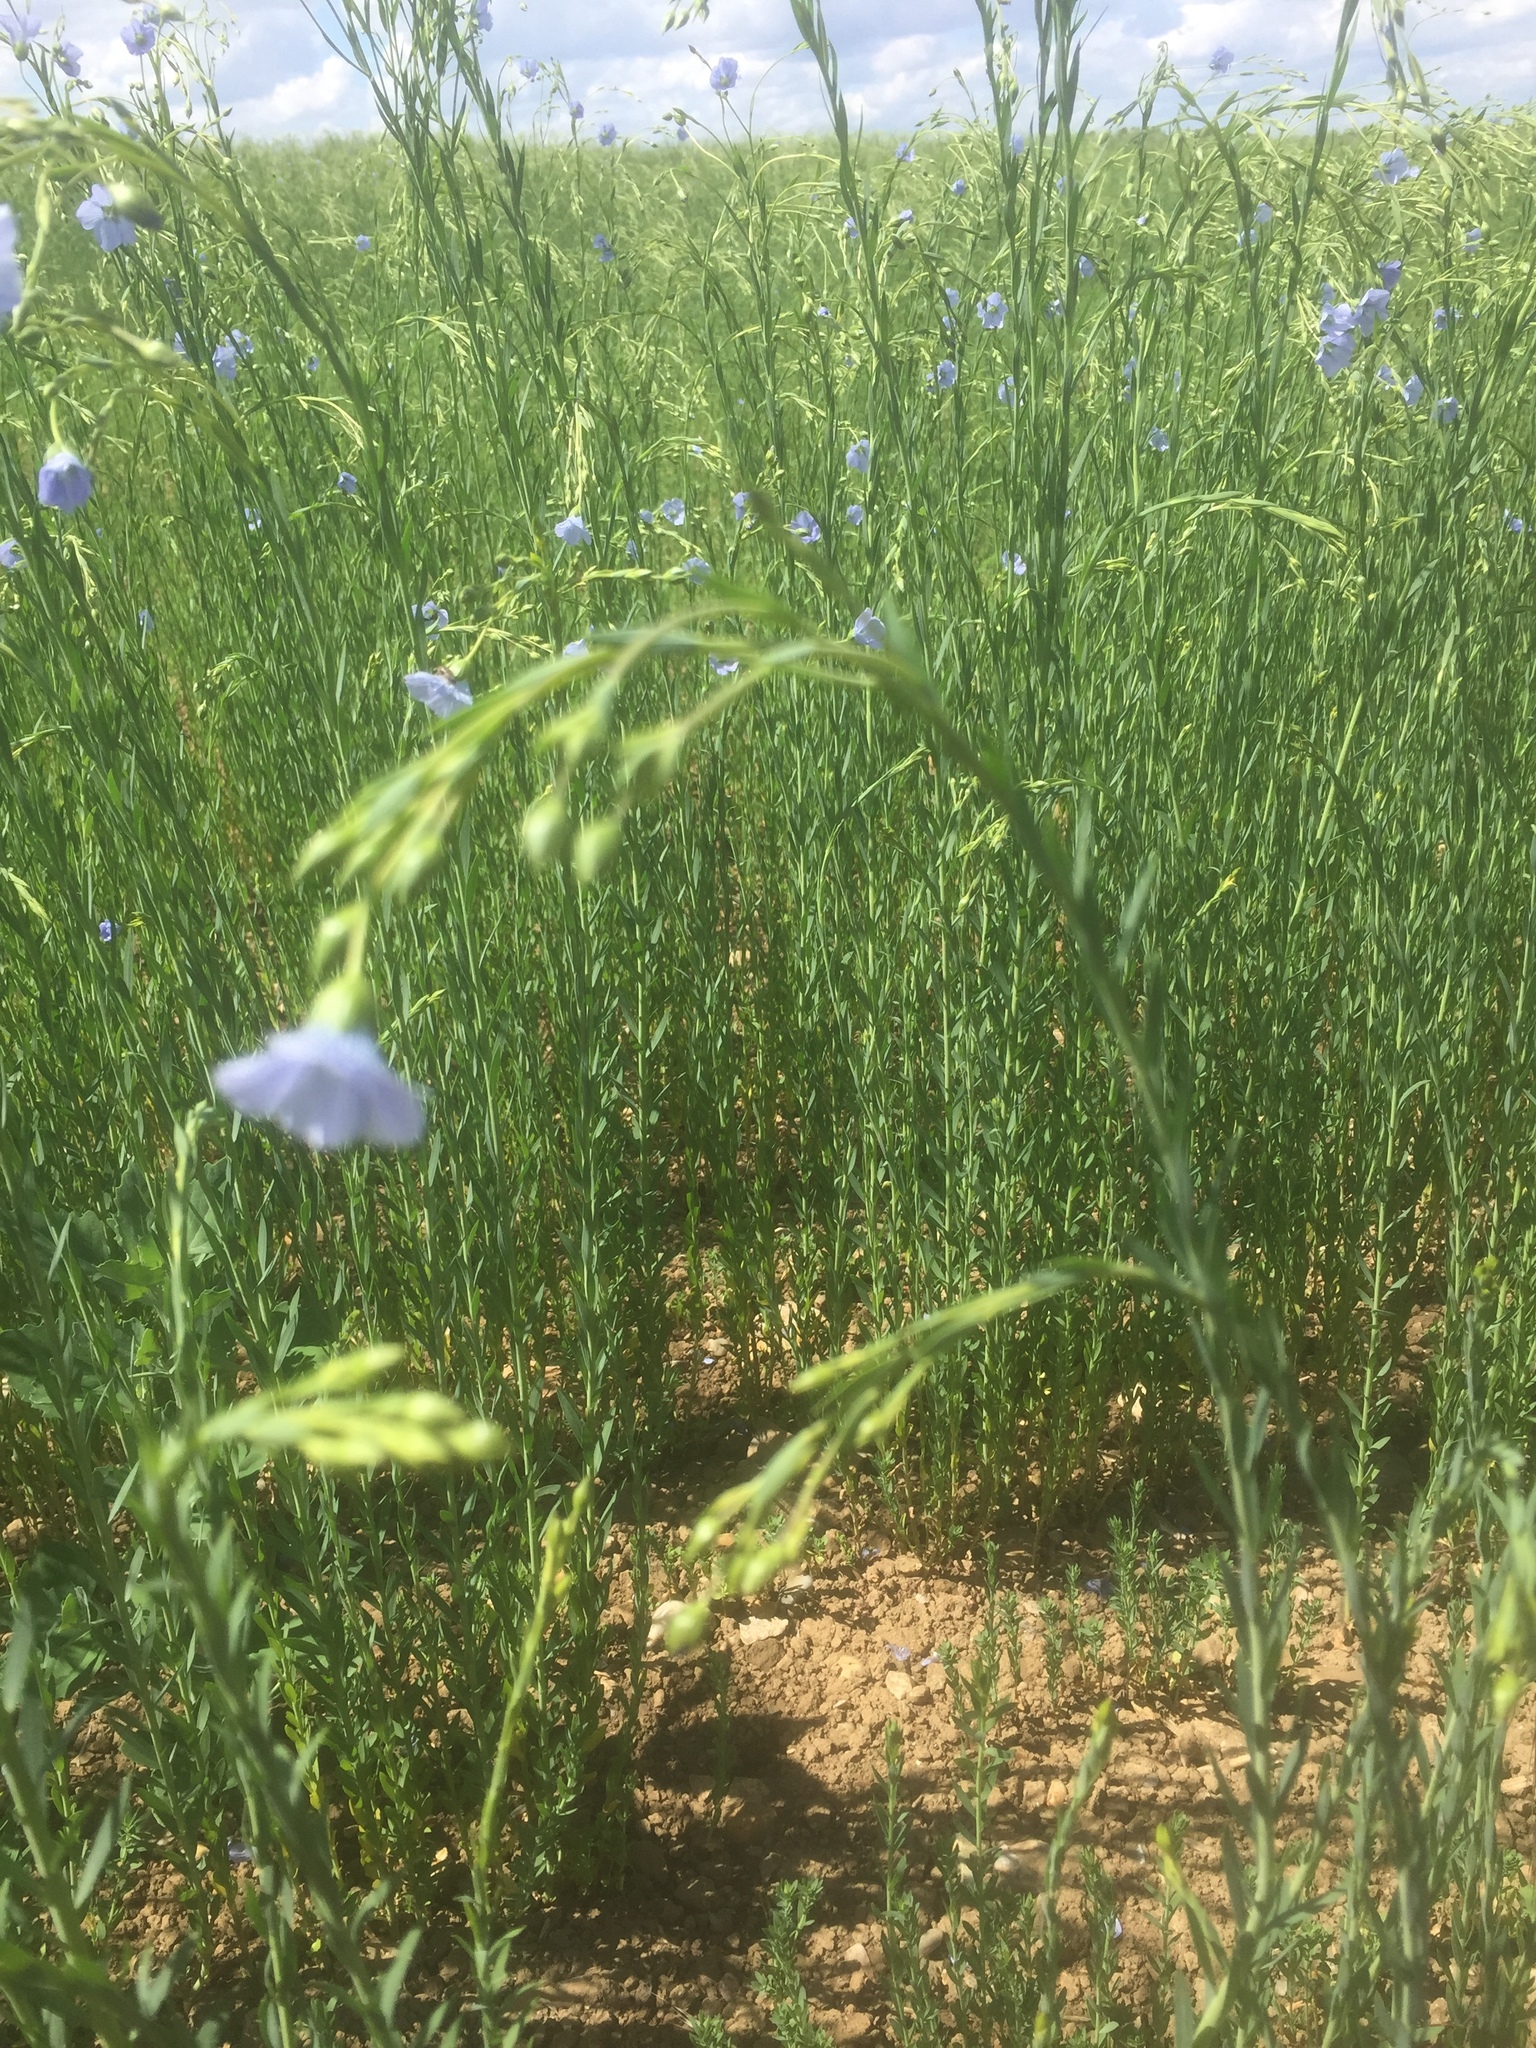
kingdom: Plantae
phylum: Tracheophyta
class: Magnoliopsida
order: Malpighiales
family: Linaceae
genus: Linum
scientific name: Linum usitatissimum
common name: Flax
